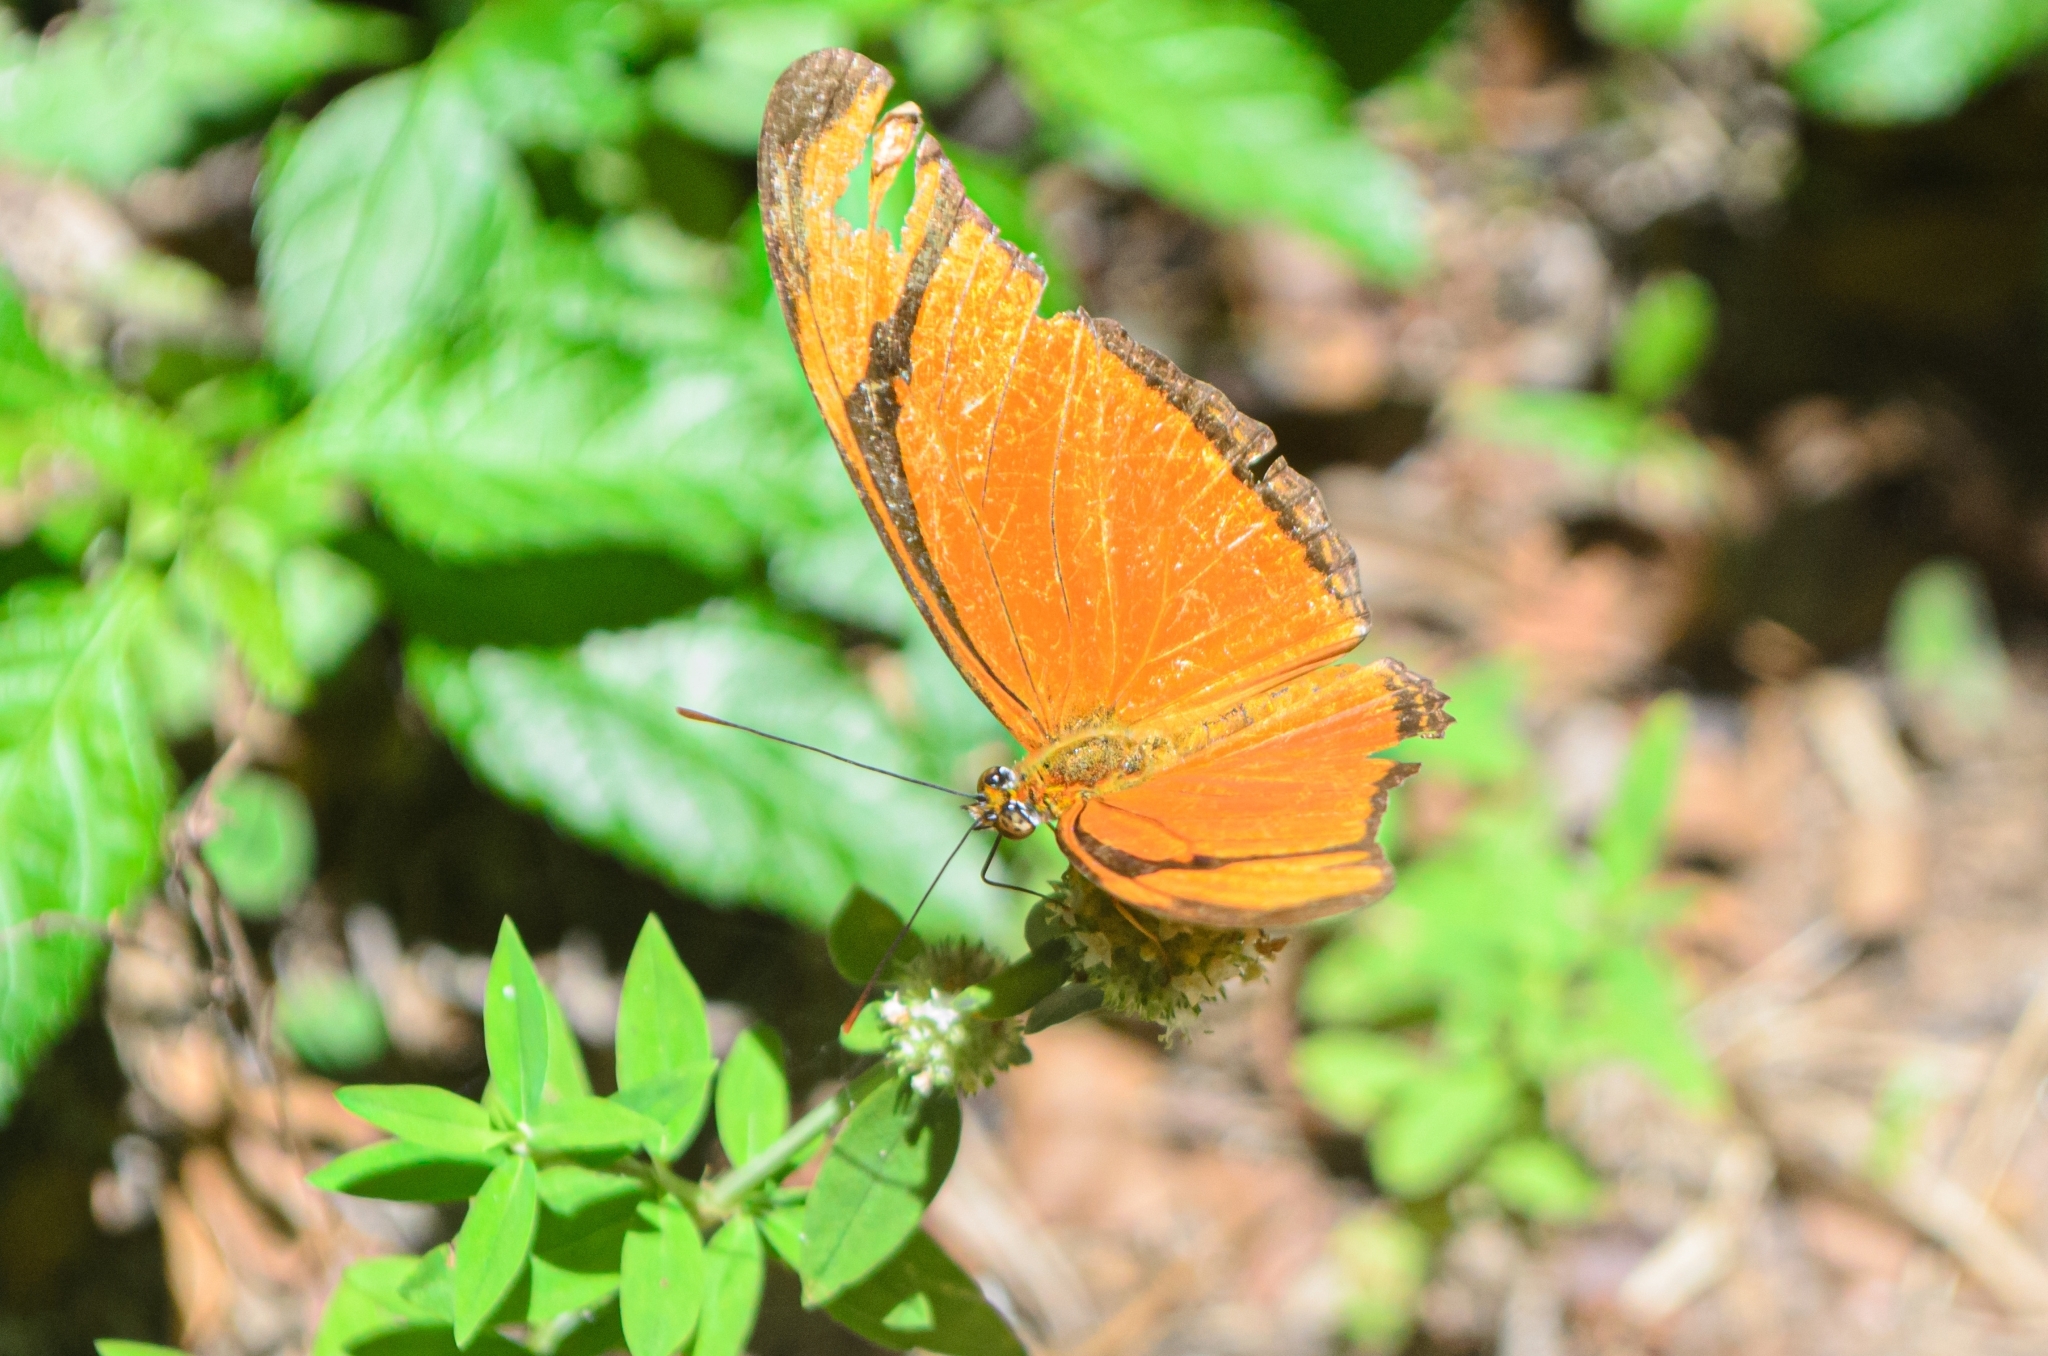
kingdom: Animalia
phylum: Arthropoda
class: Insecta
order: Lepidoptera
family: Nymphalidae
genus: Dryas
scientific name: Dryas iulia
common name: Flambeau
